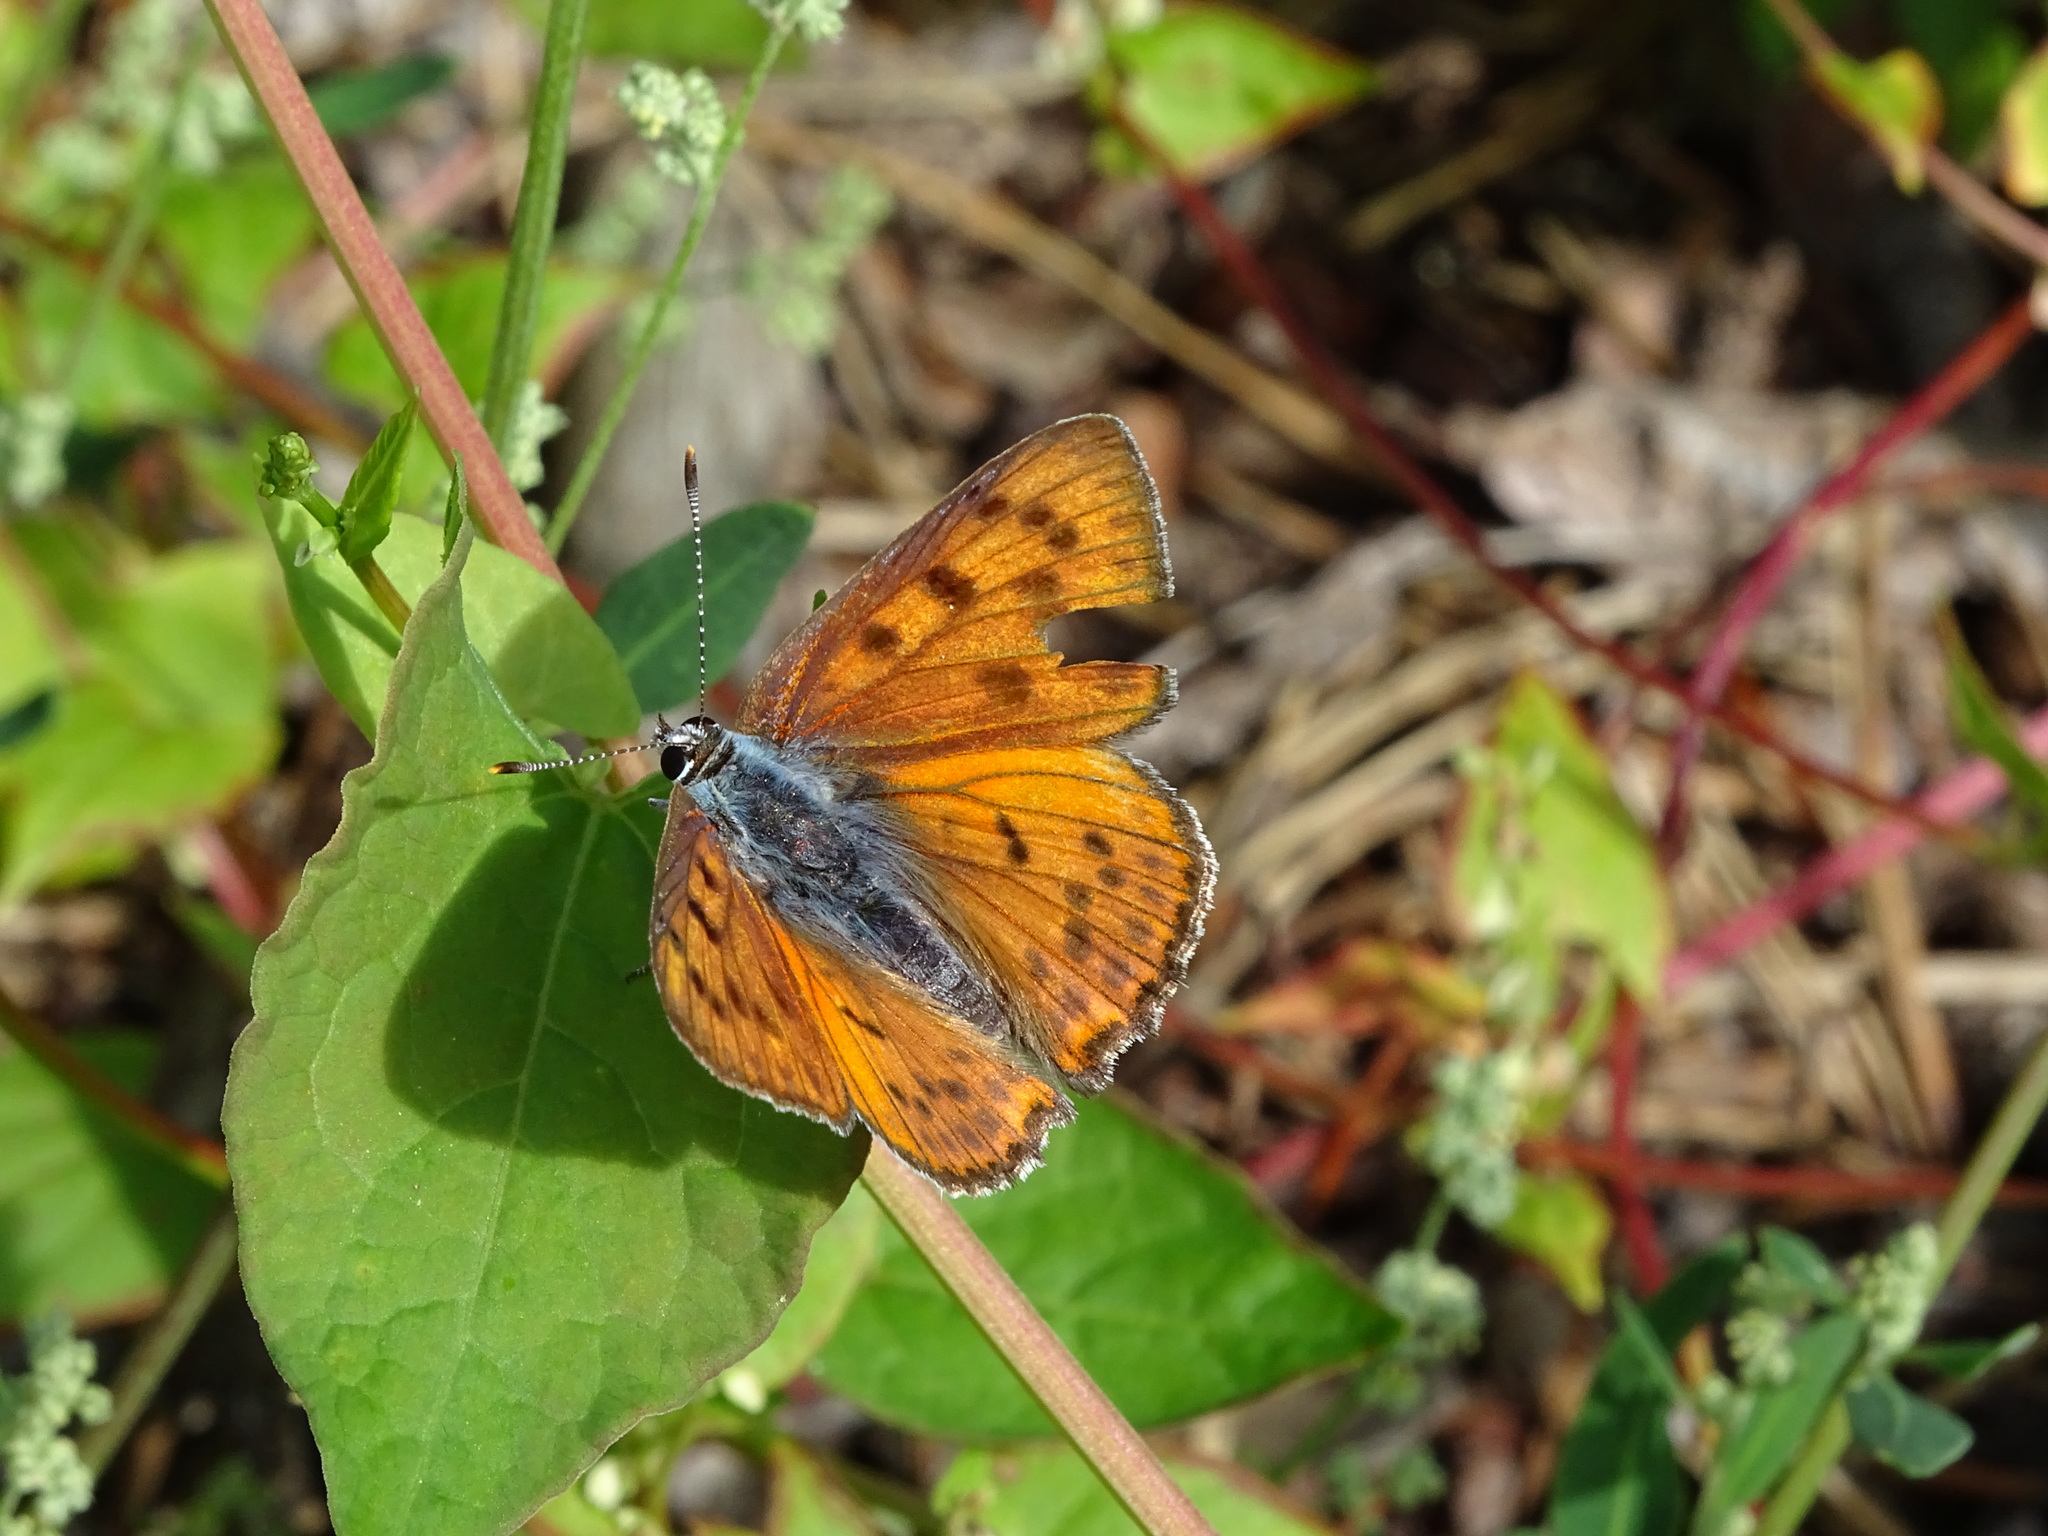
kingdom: Animalia
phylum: Arthropoda
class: Insecta
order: Lepidoptera
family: Lycaenidae
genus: Lycaena
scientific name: Lycaena alciphron
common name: Purple-shot copper
